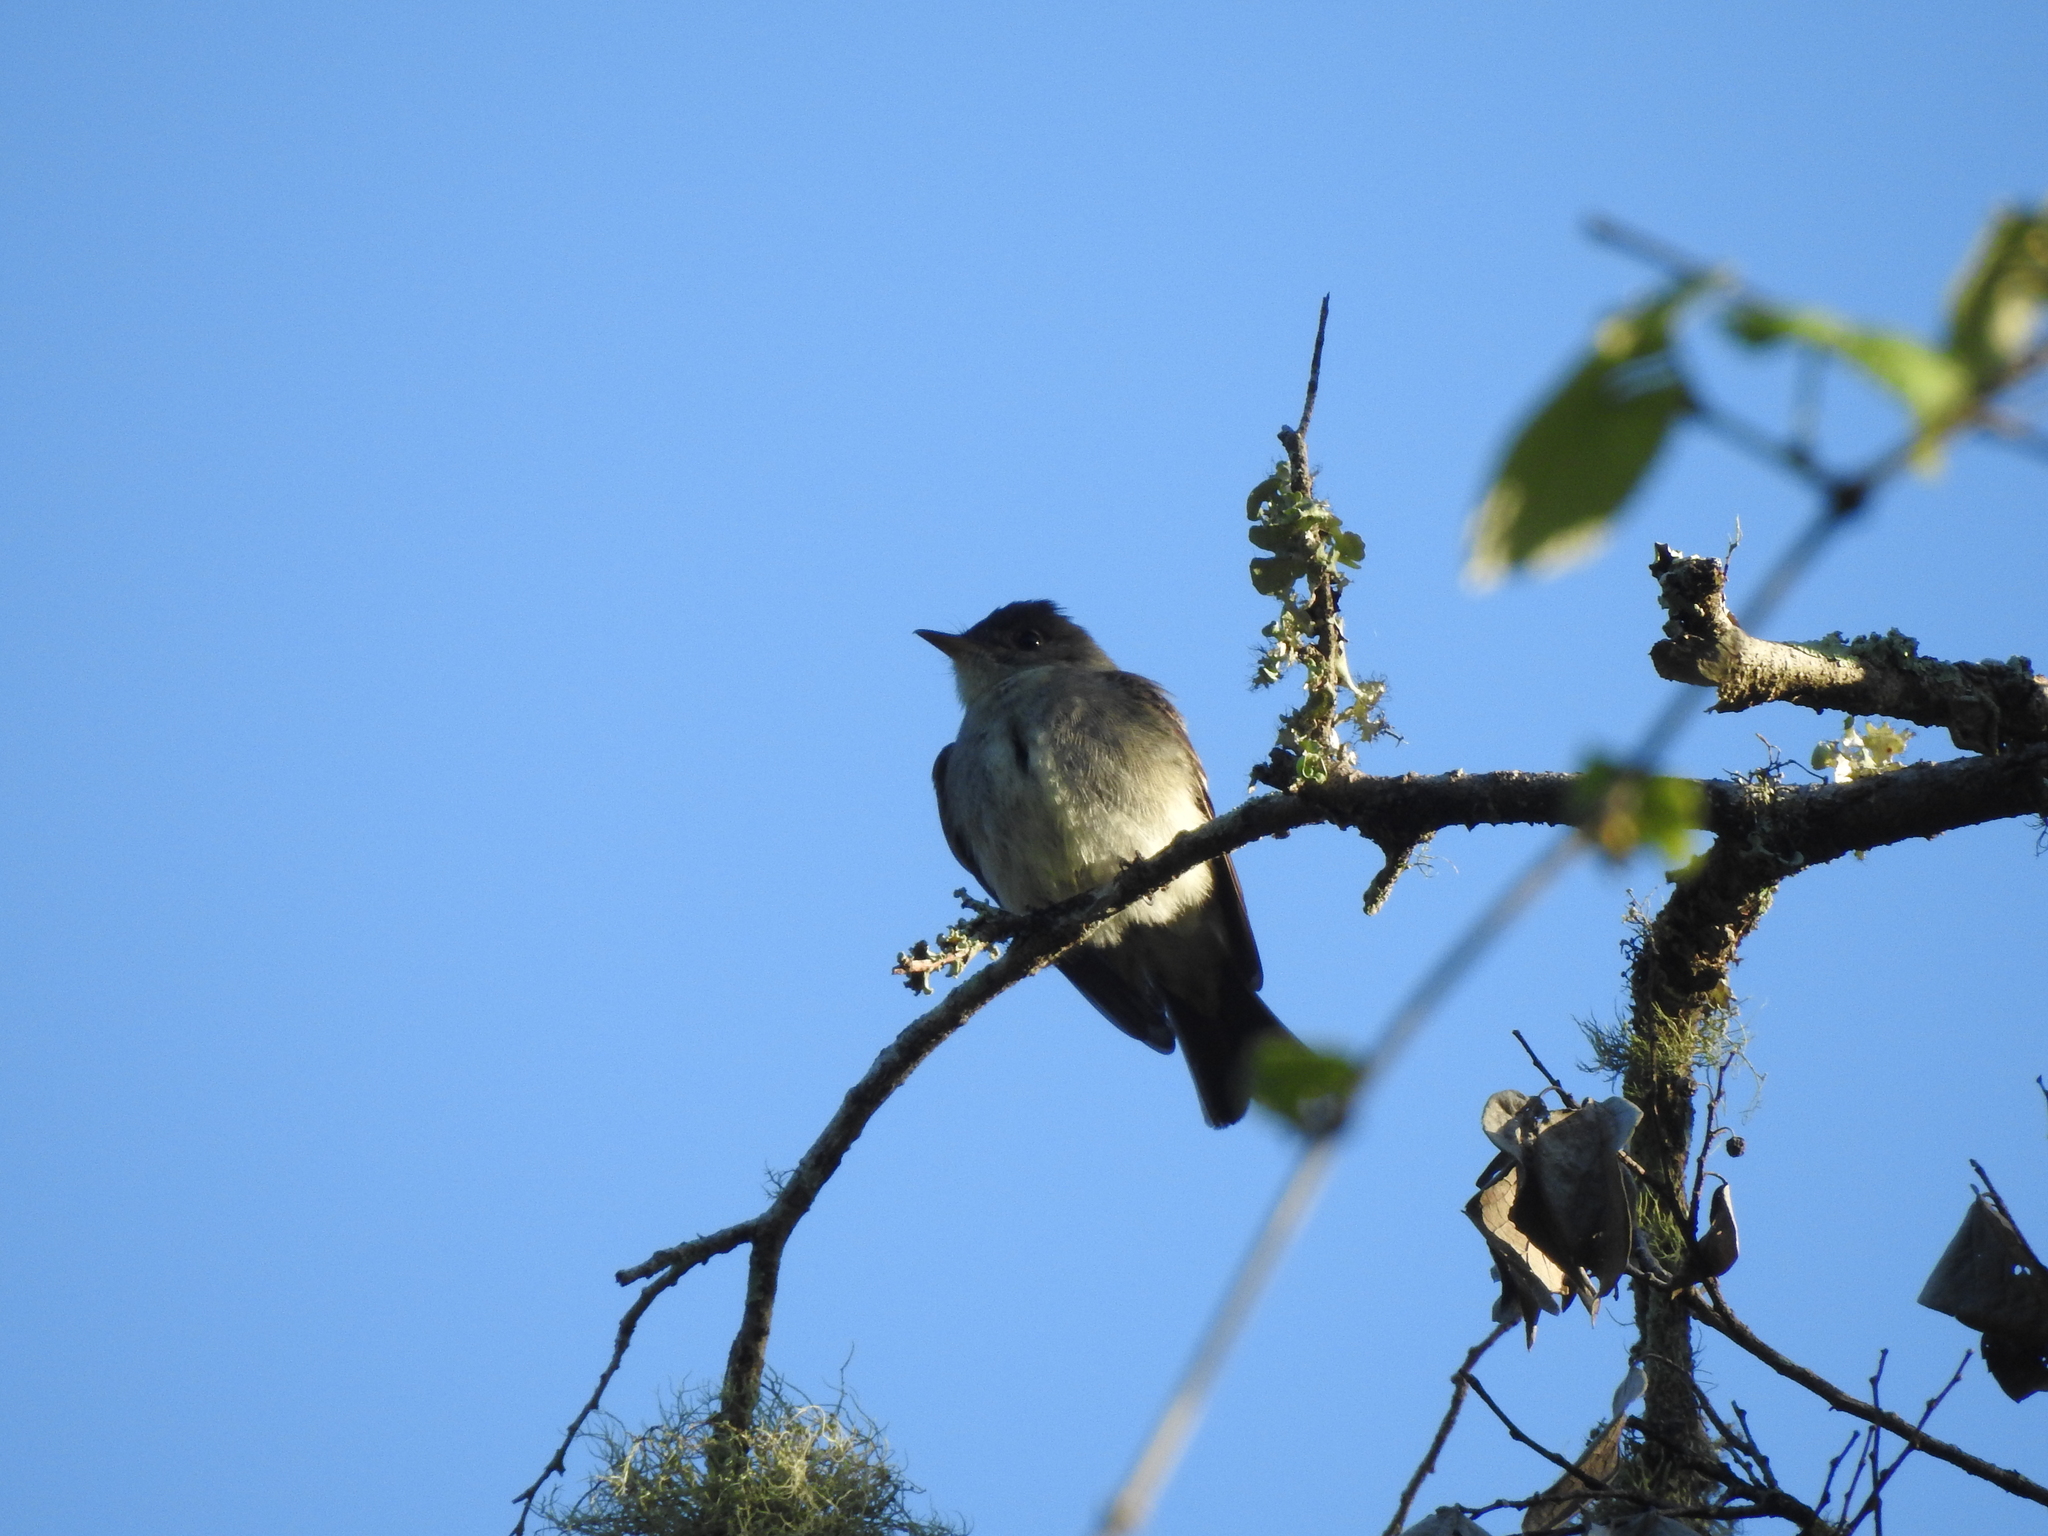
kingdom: Animalia
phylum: Chordata
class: Aves
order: Passeriformes
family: Tyrannidae
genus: Contopus
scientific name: Contopus virens
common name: Eastern wood-pewee
